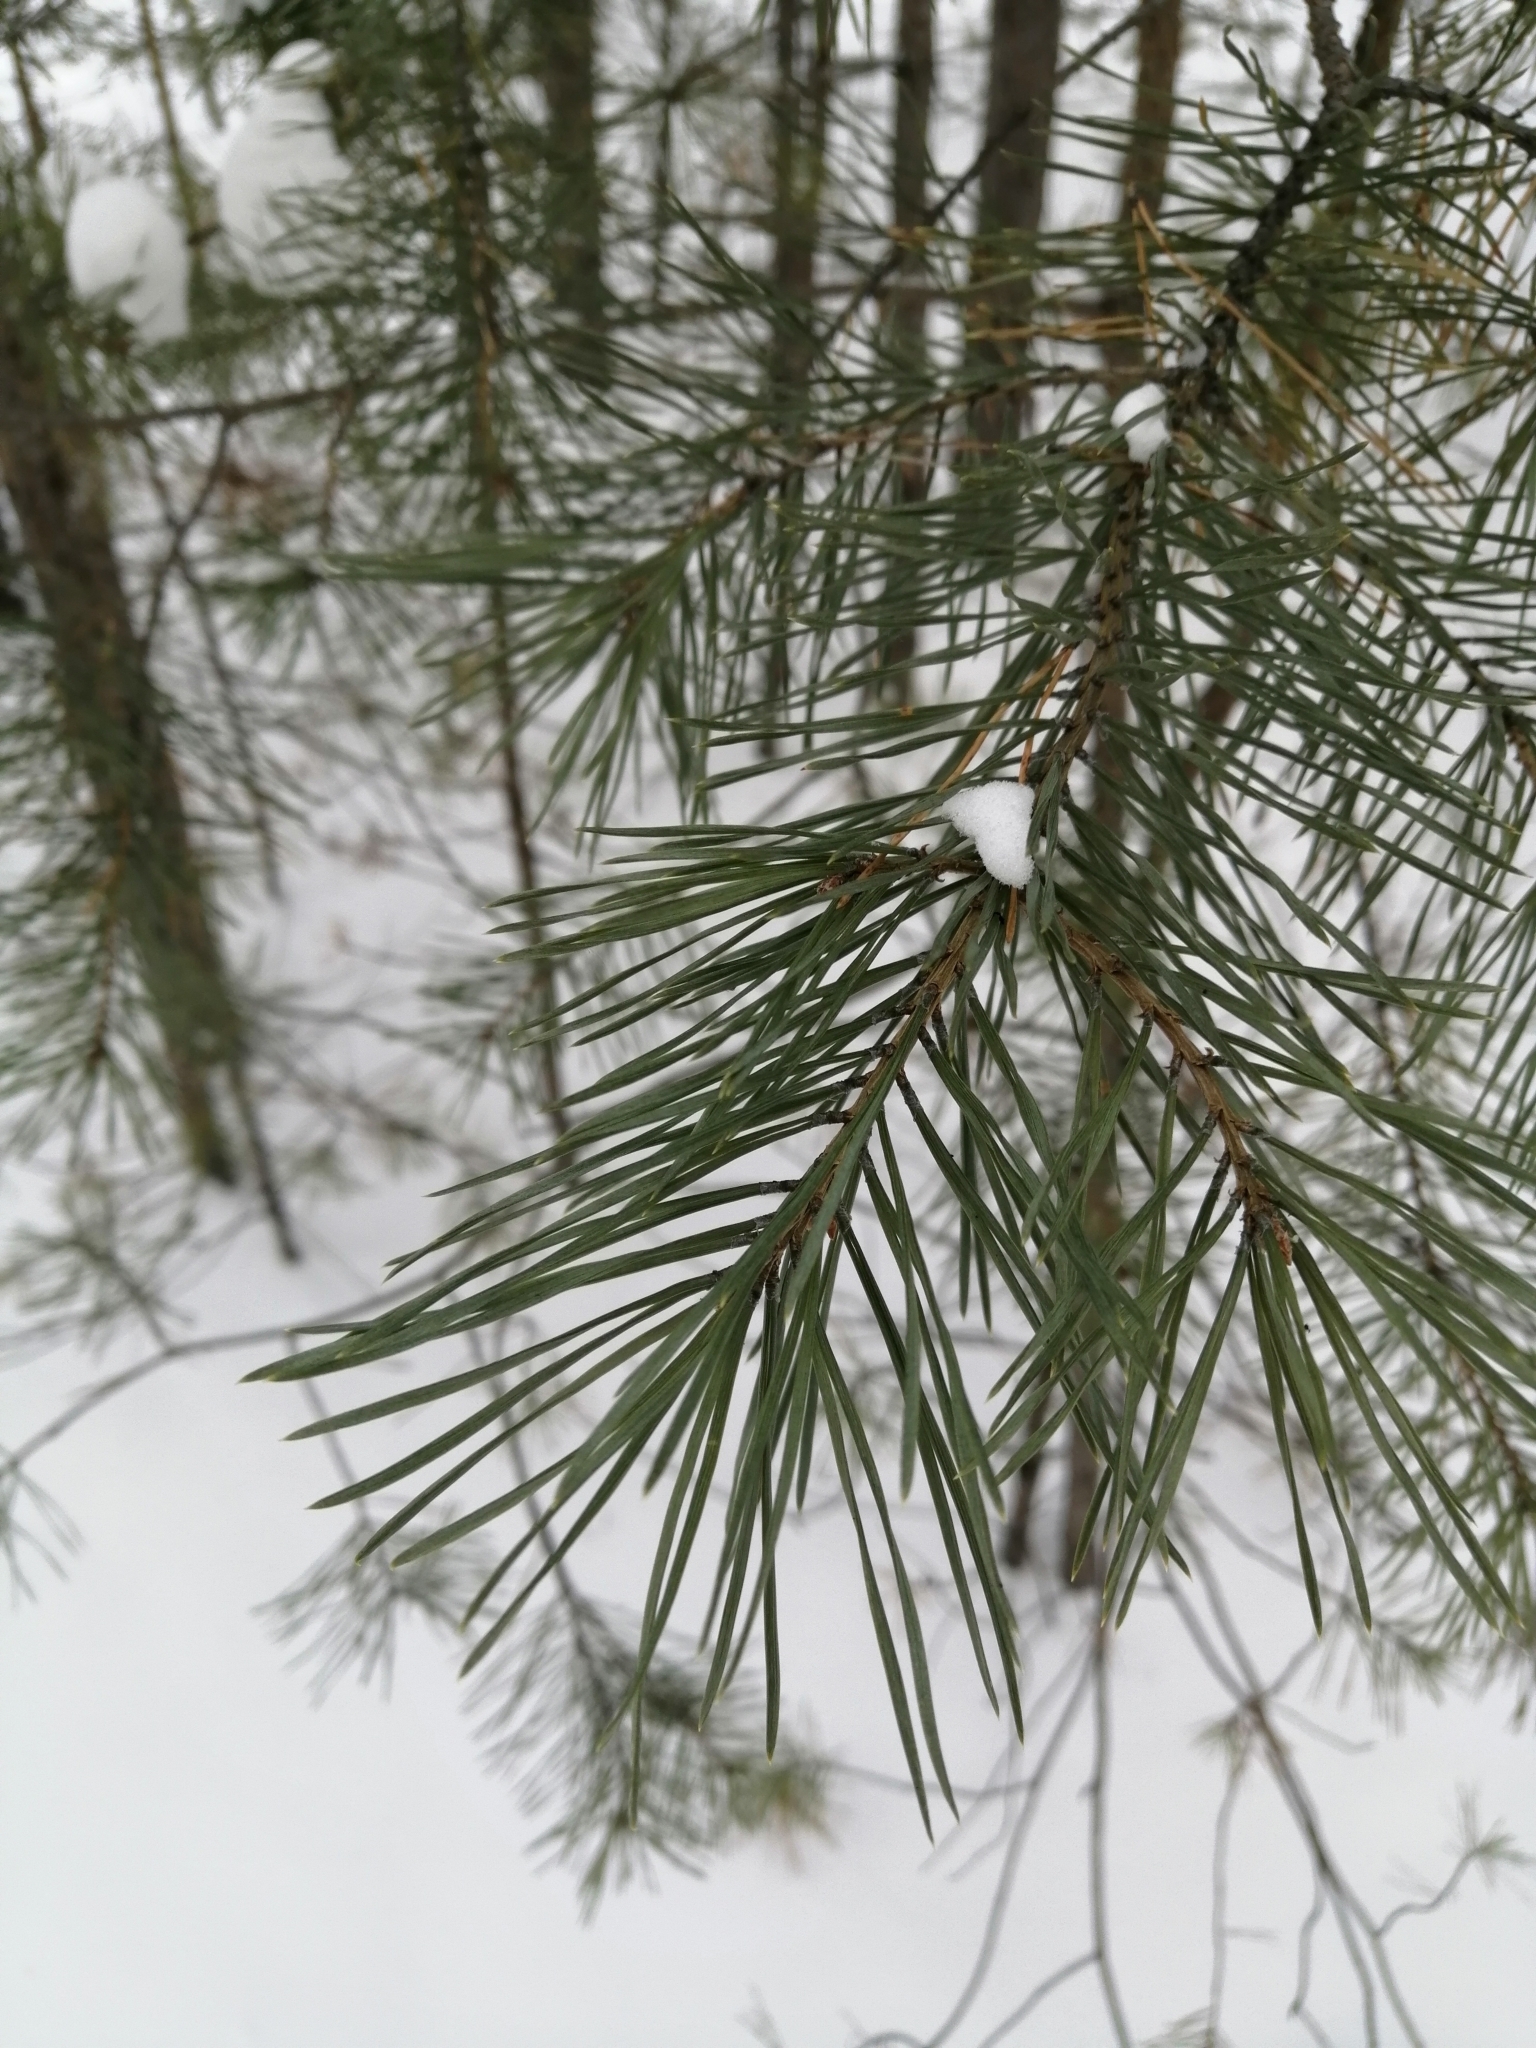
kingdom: Plantae
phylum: Tracheophyta
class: Pinopsida
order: Pinales
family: Pinaceae
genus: Pinus
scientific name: Pinus sylvestris
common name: Scots pine
